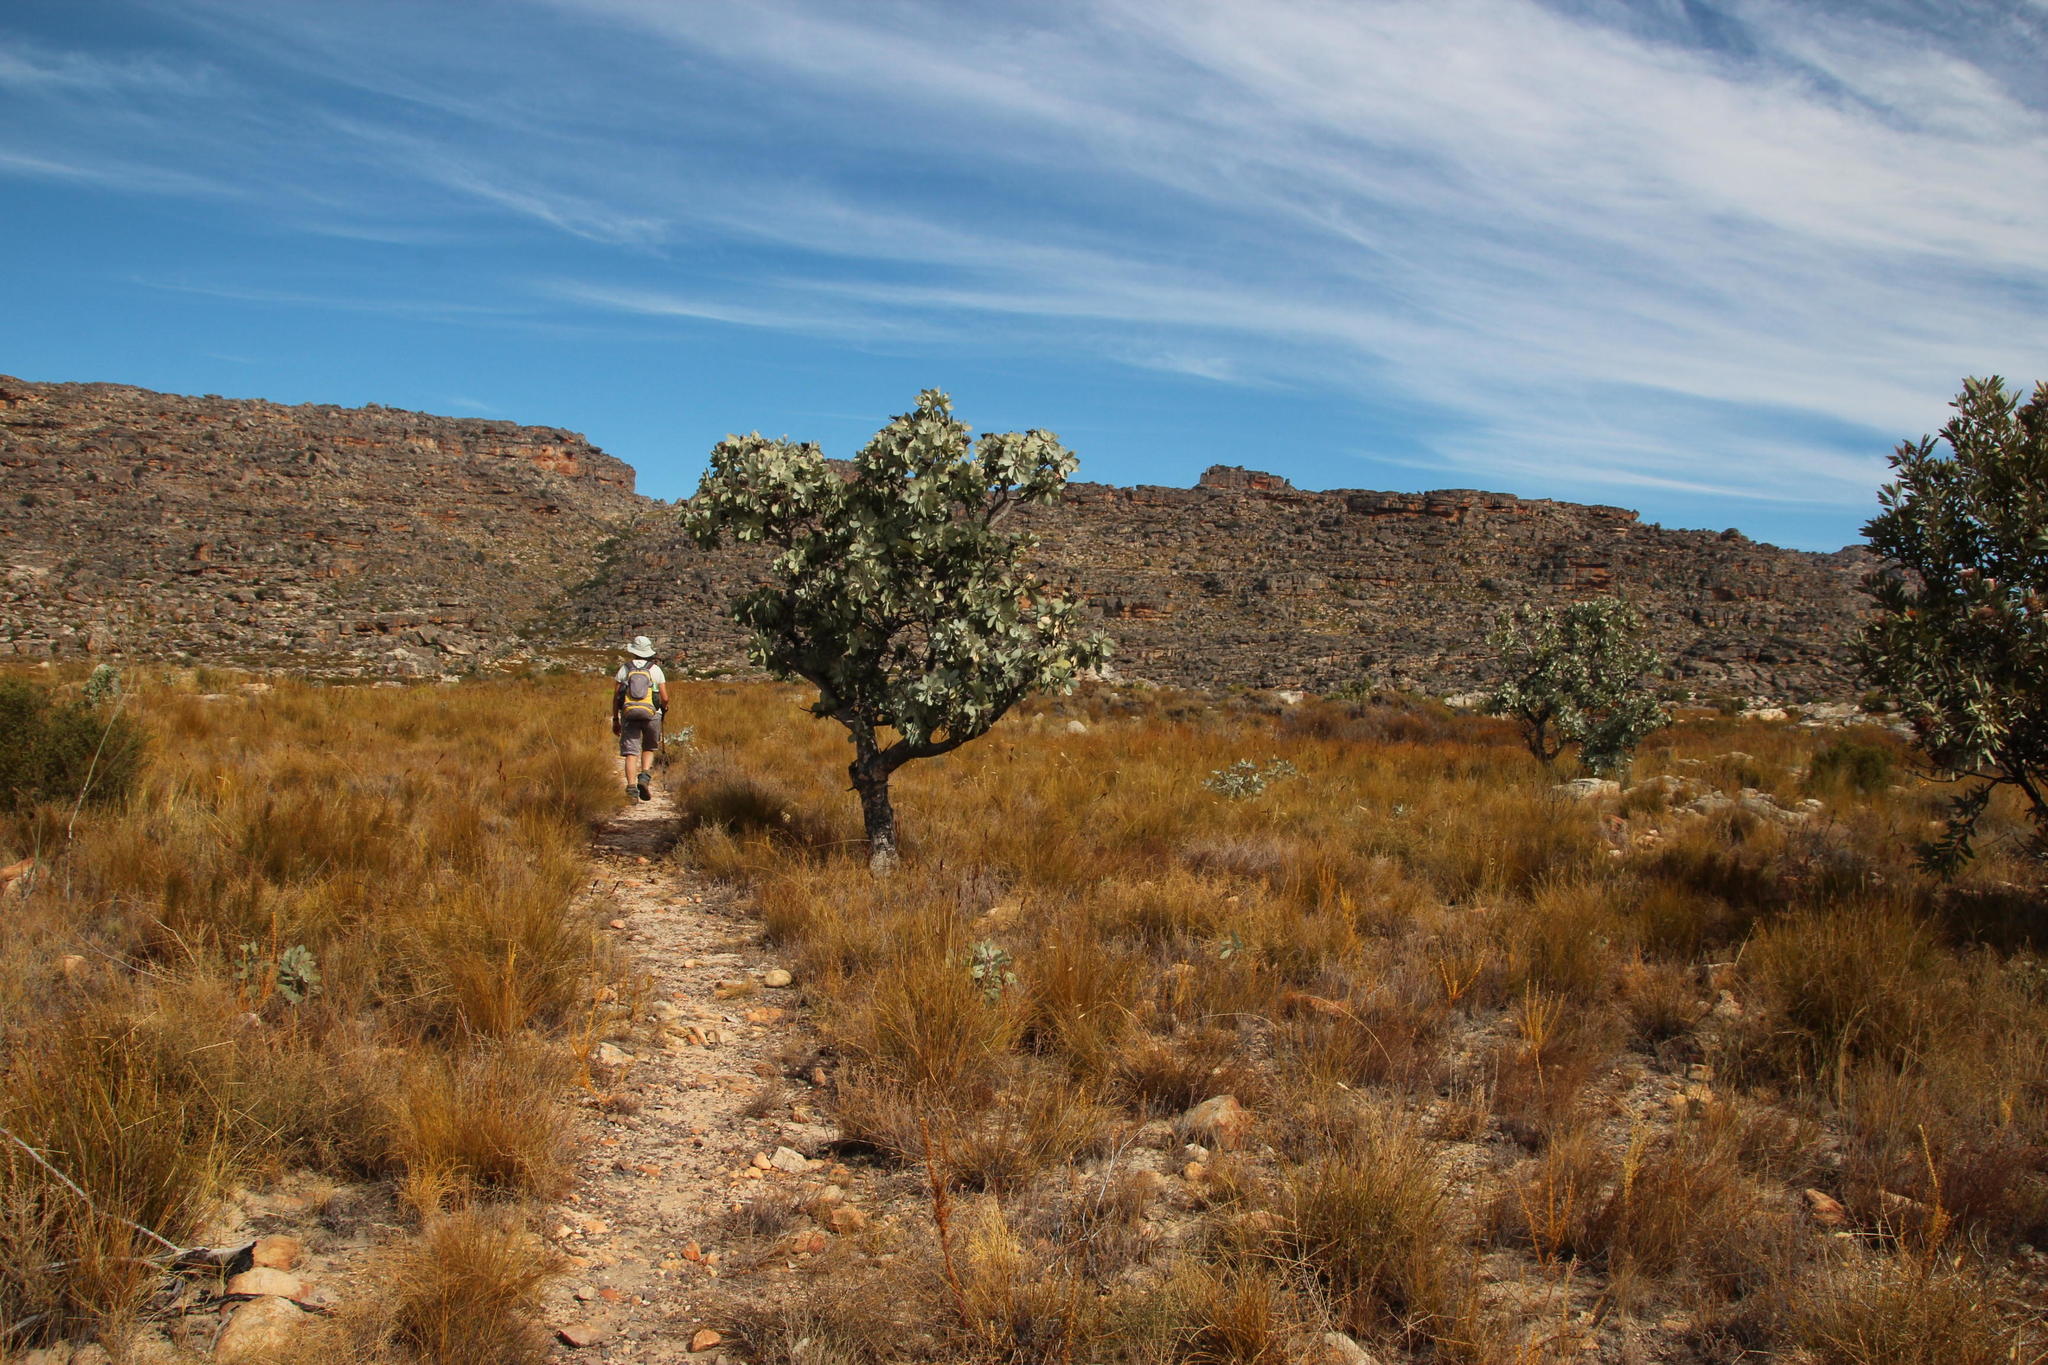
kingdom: Plantae
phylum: Tracheophyta
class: Magnoliopsida
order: Proteales
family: Proteaceae
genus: Protea
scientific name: Protea nitida
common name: Tree protea
